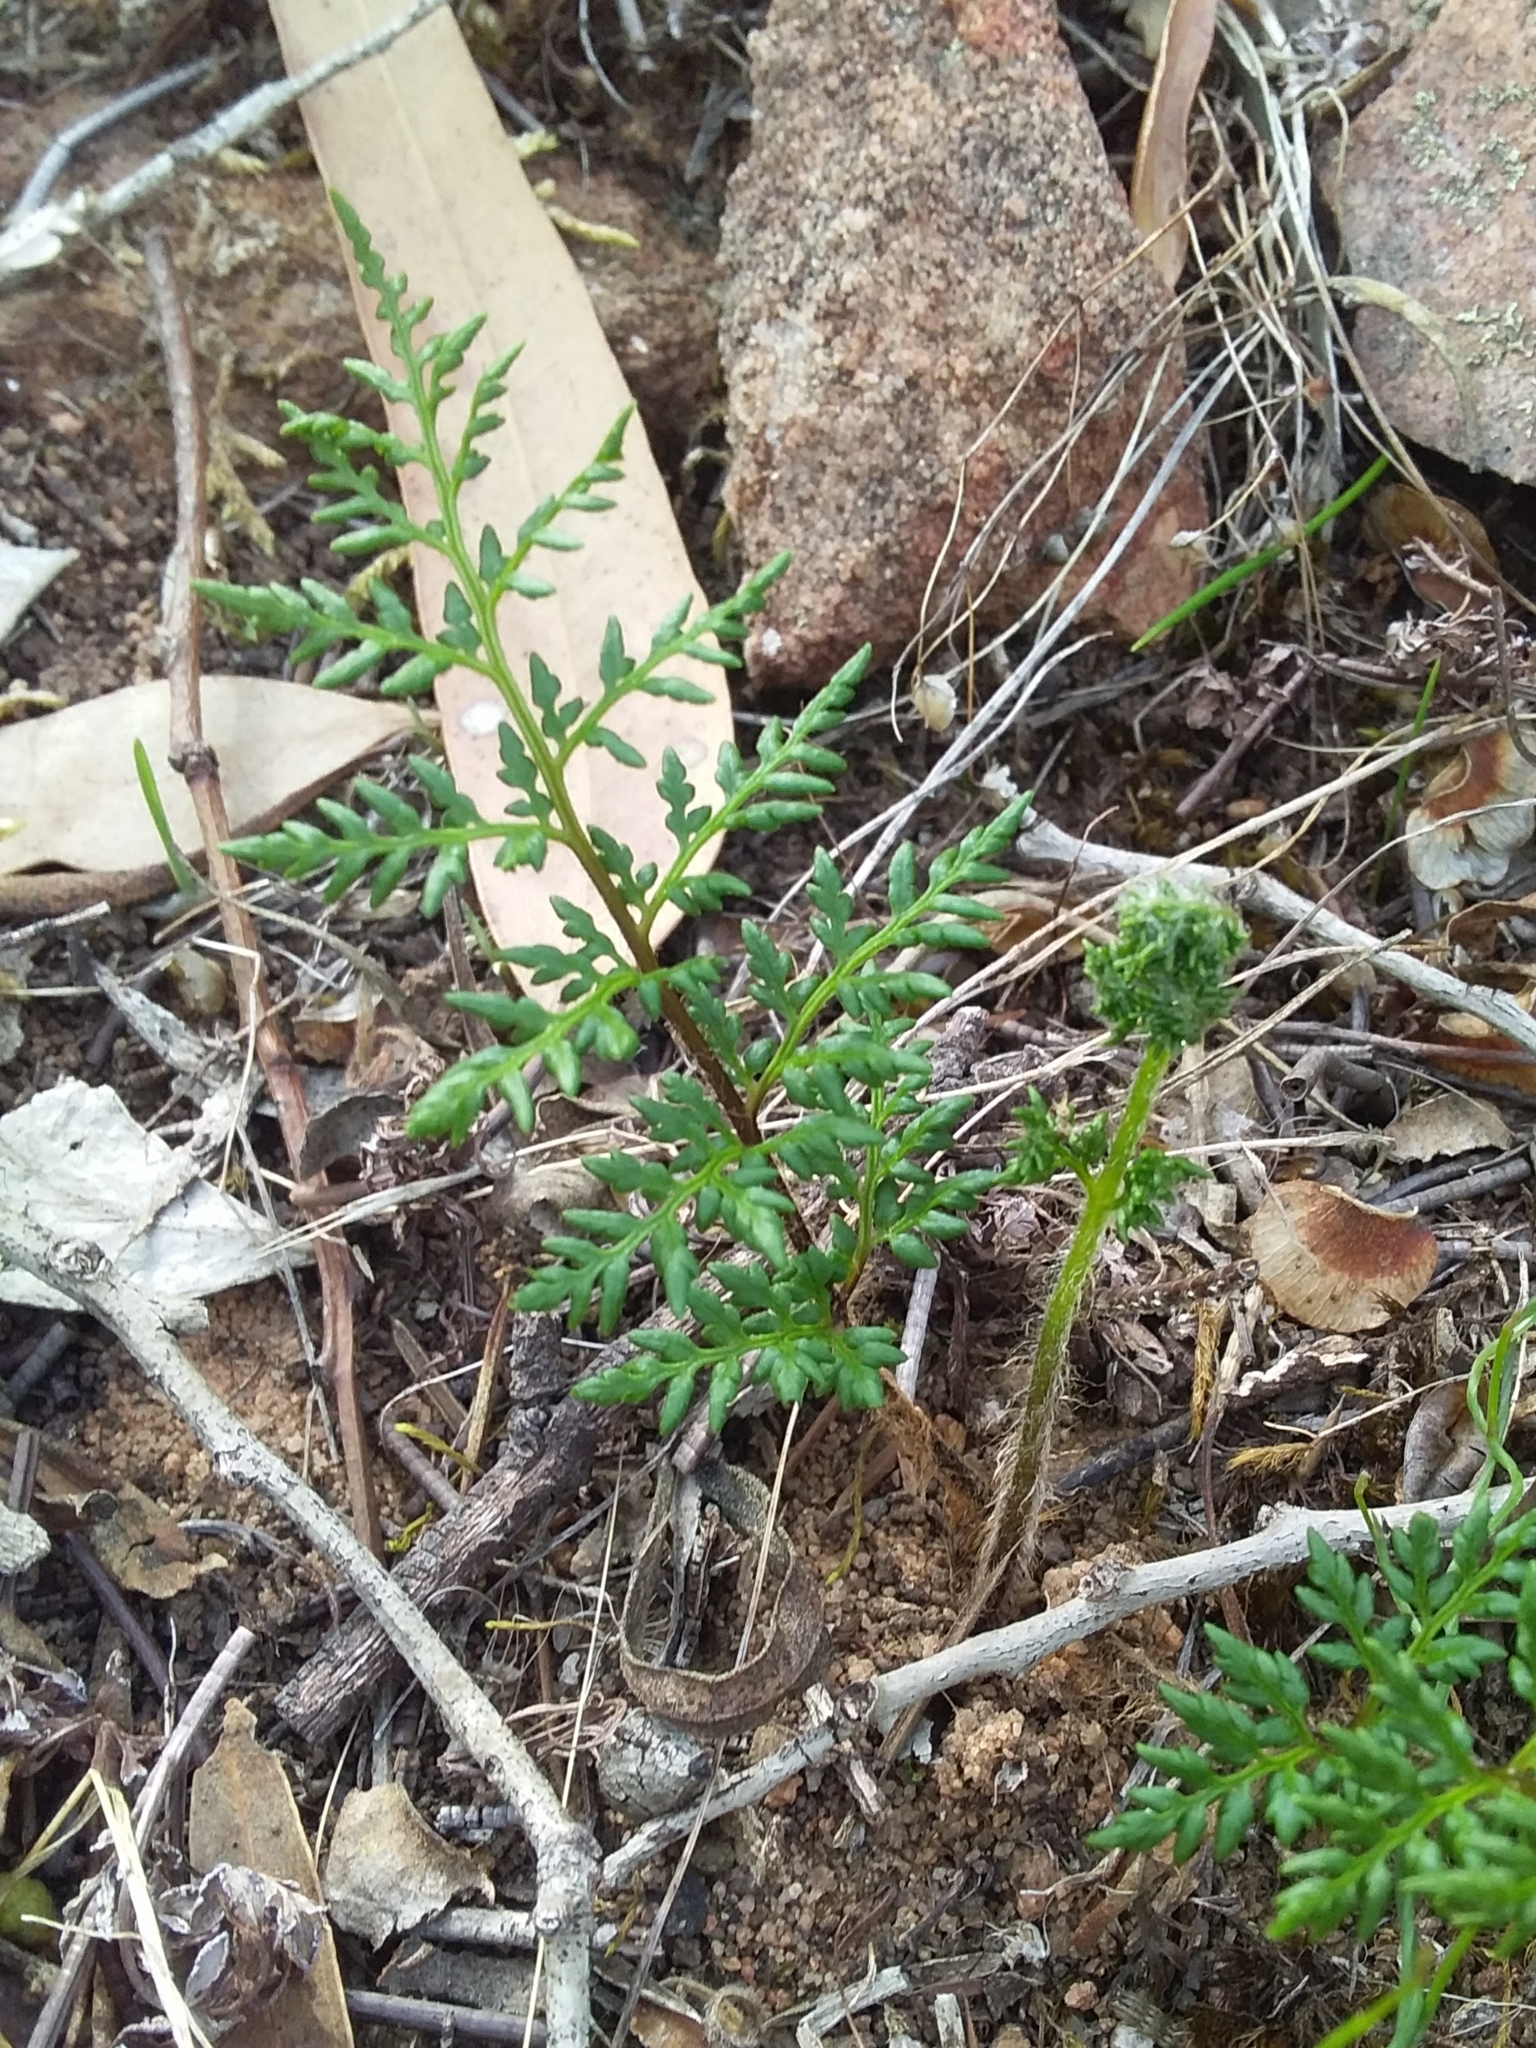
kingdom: Plantae
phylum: Tracheophyta
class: Polypodiopsida
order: Polypodiales
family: Pteridaceae
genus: Cheilanthes
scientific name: Cheilanthes austrotenuifolia
